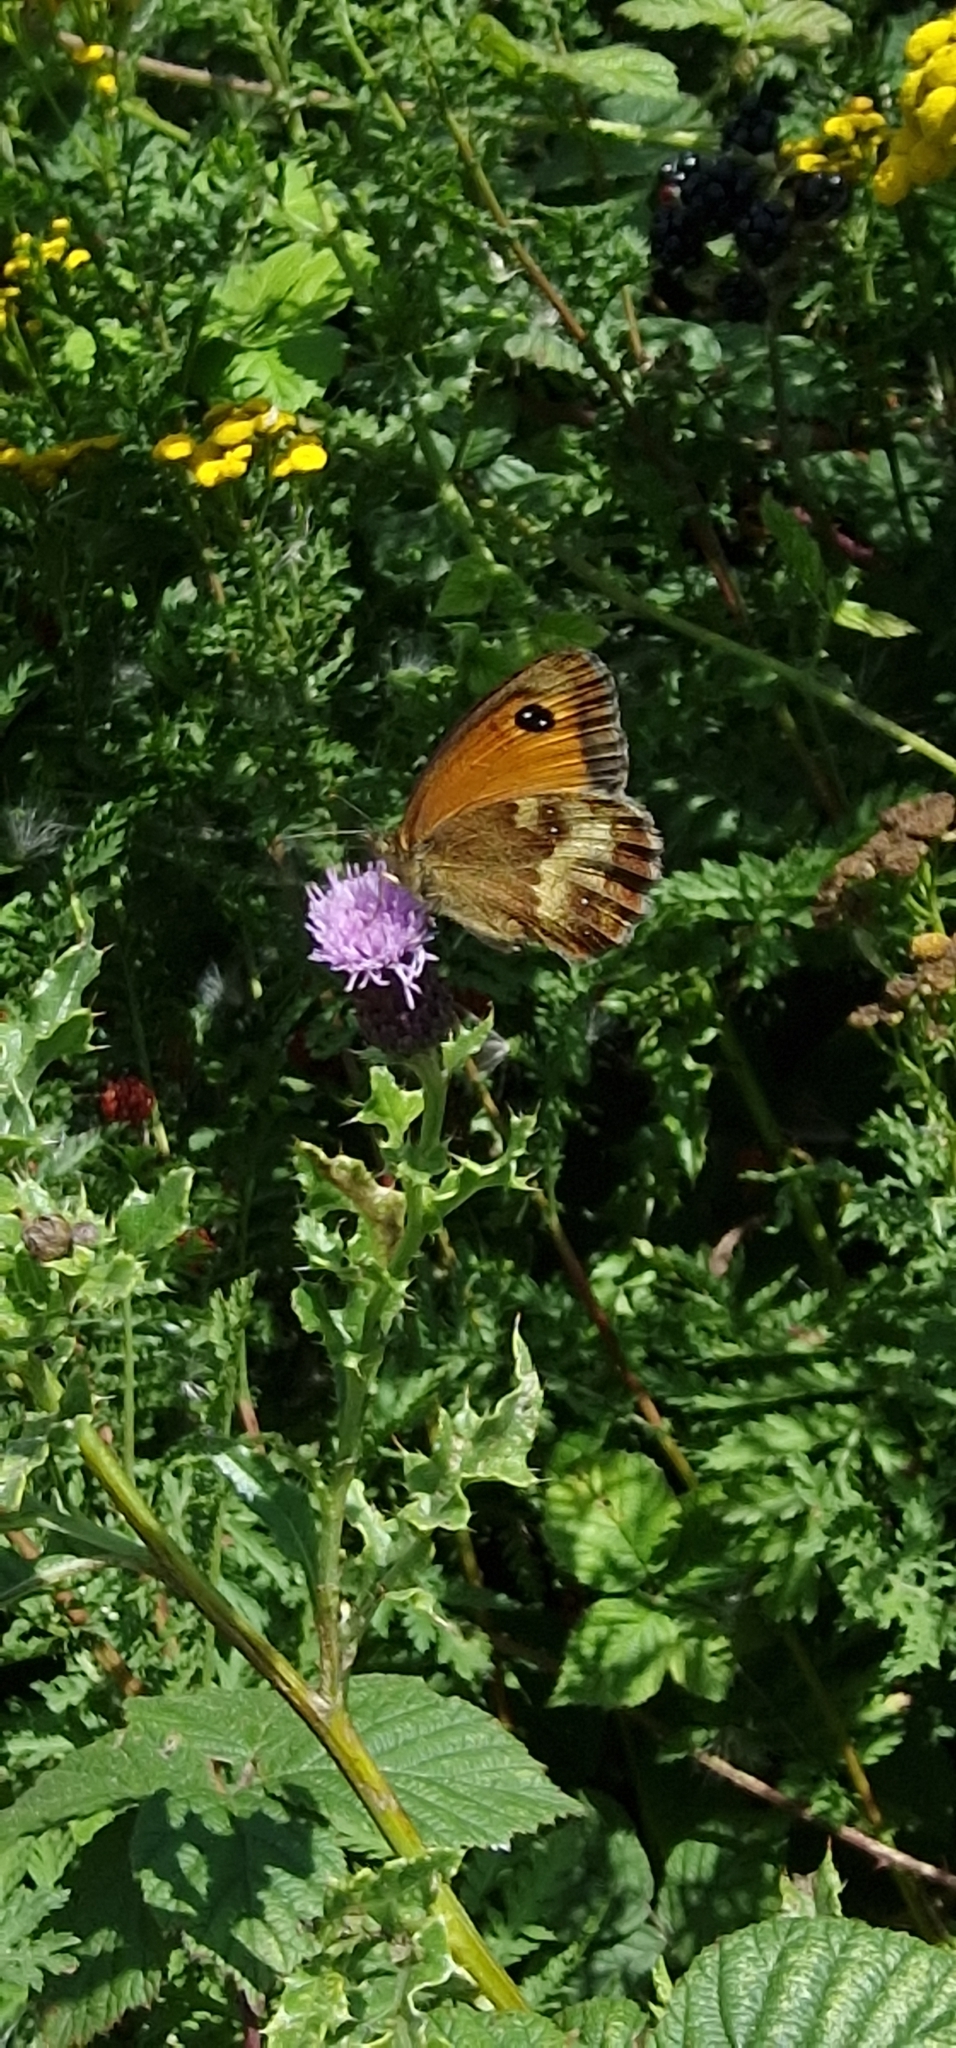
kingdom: Animalia
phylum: Arthropoda
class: Insecta
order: Lepidoptera
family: Nymphalidae
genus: Pyronia
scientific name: Pyronia tithonus
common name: Gatekeeper
